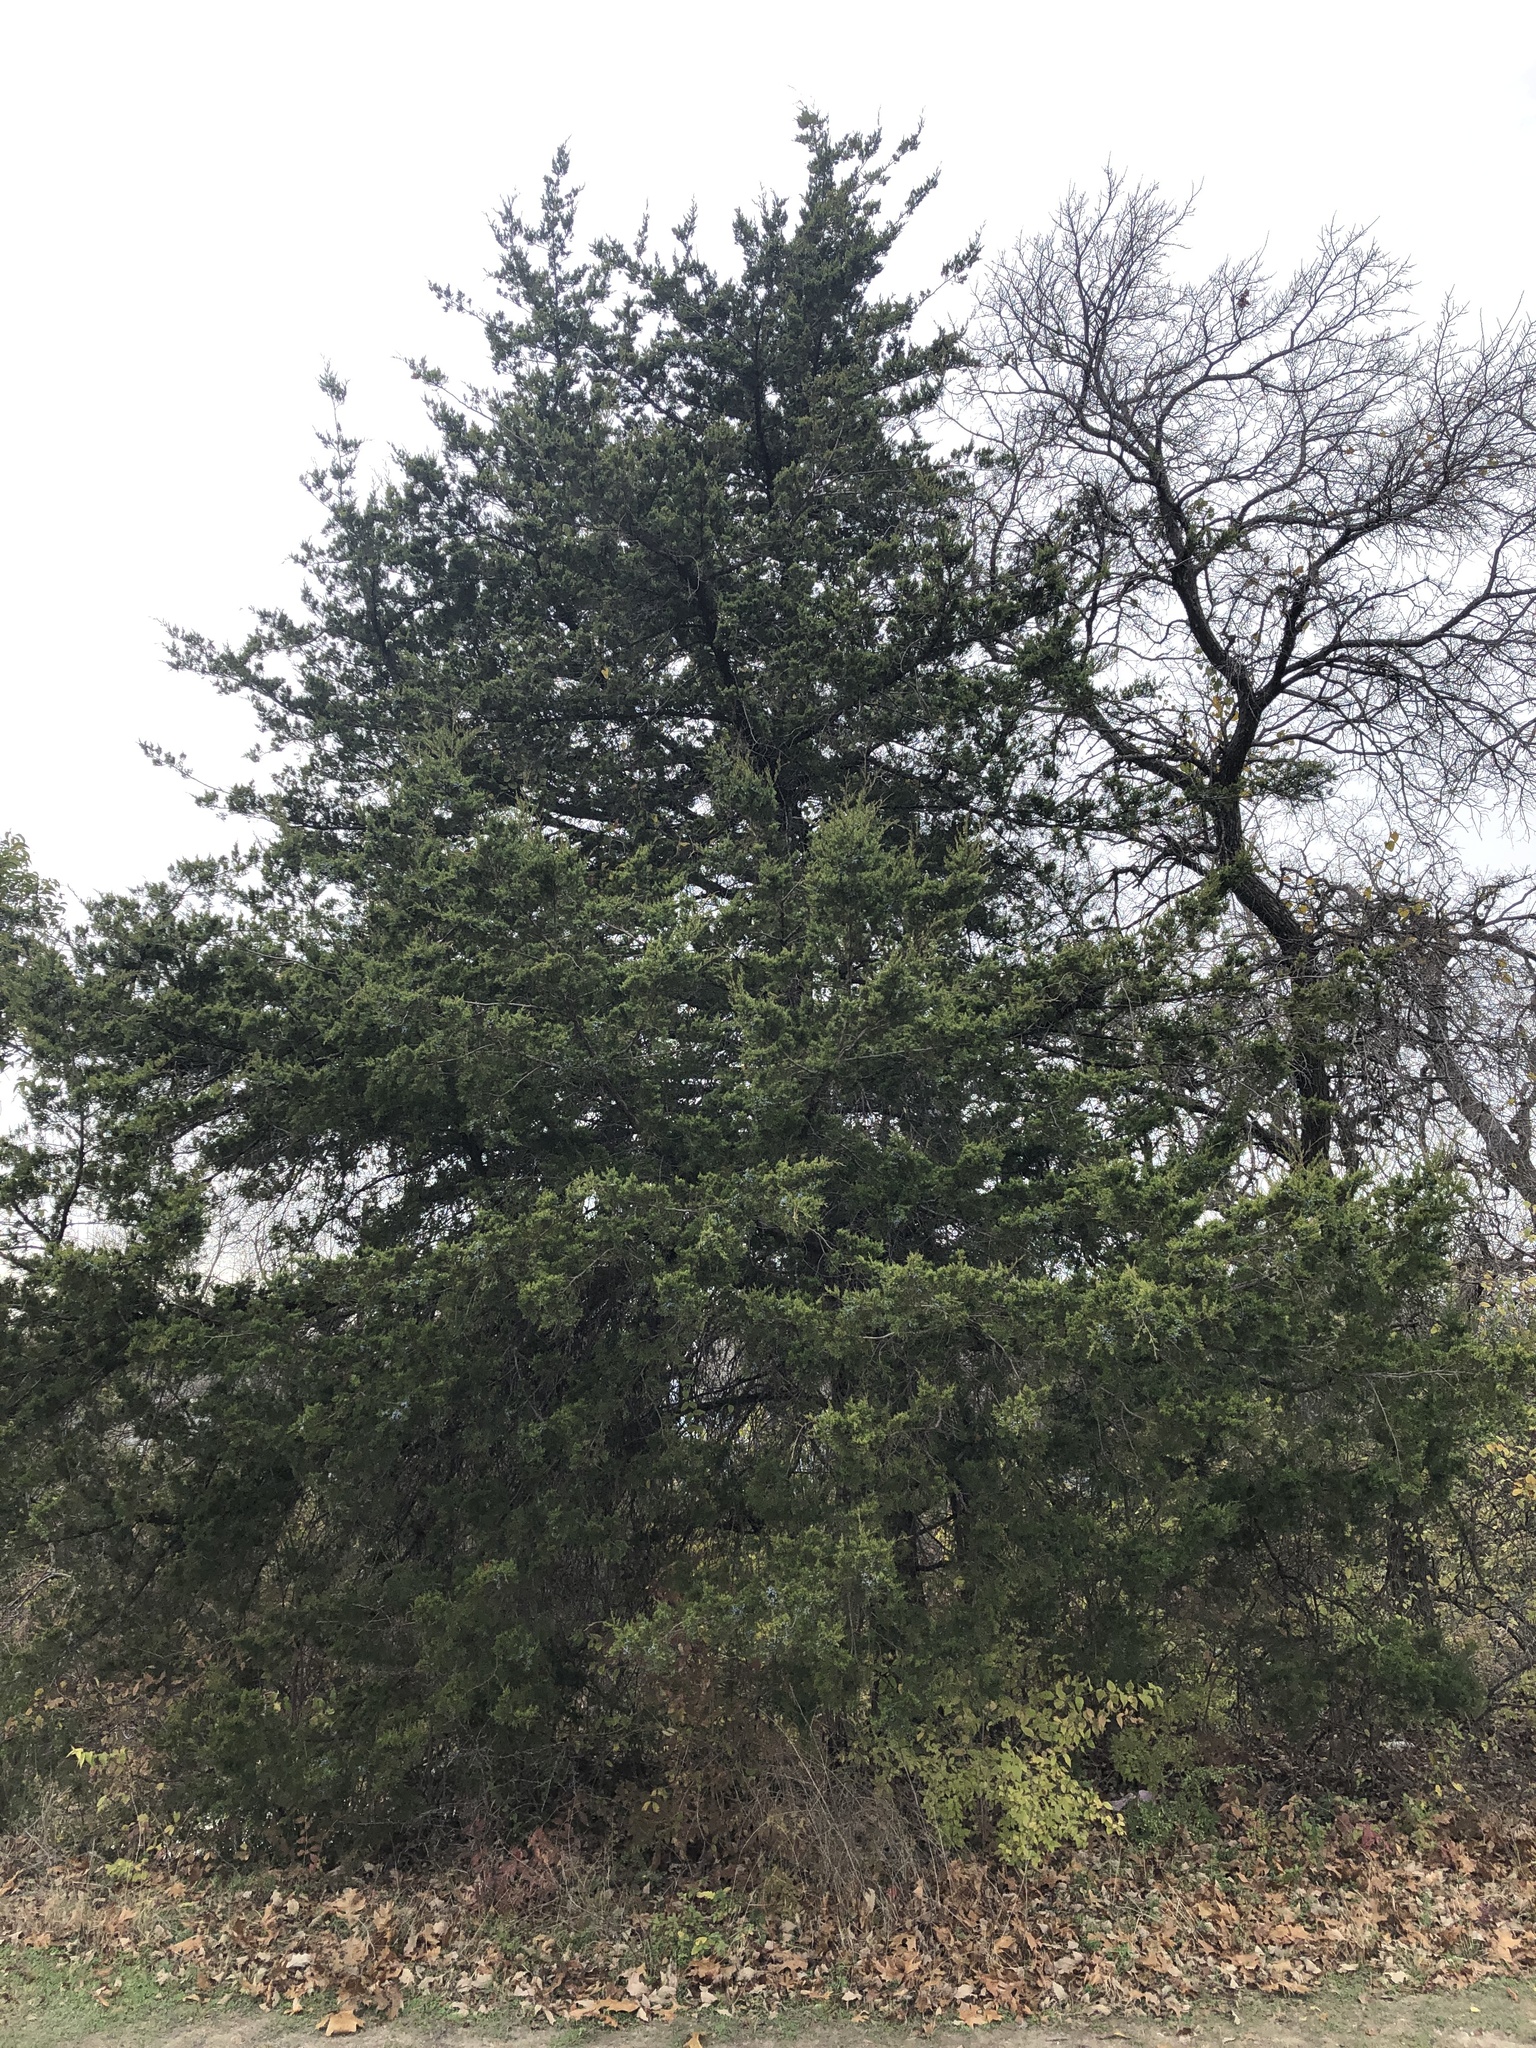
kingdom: Plantae
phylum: Tracheophyta
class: Pinopsida
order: Pinales
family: Cupressaceae
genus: Juniperus
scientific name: Juniperus virginiana
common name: Red juniper
